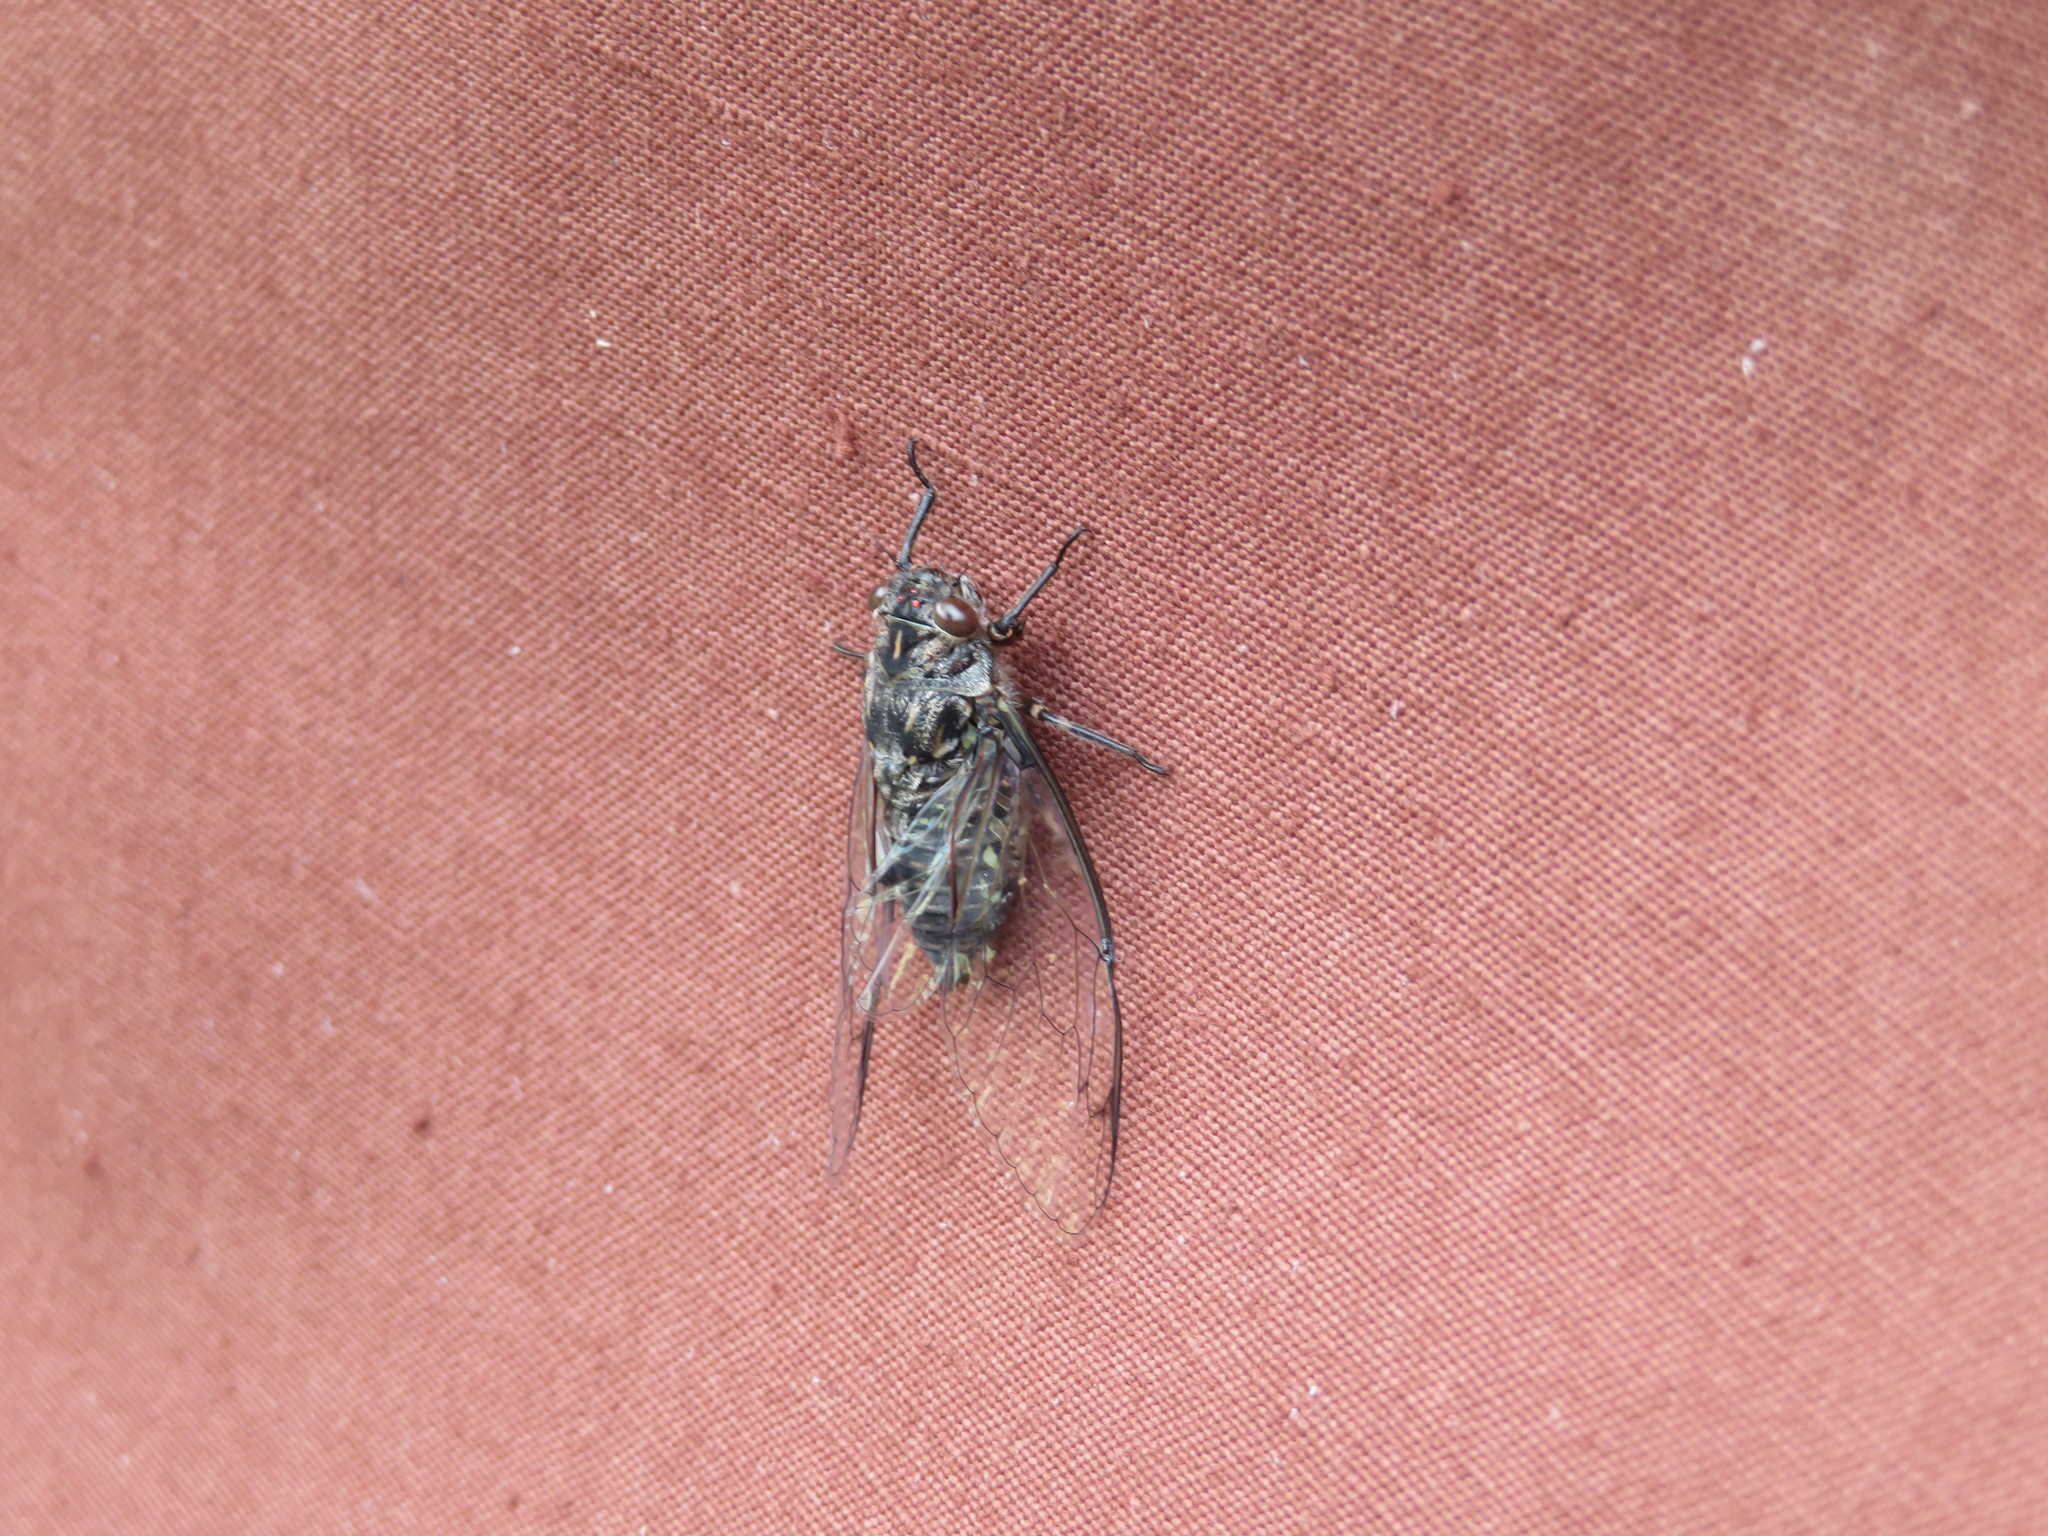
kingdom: Animalia
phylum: Arthropoda
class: Insecta
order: Hemiptera
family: Cicadidae
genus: Amphipsalta
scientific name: Amphipsalta cingulata
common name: Clapping cicada
